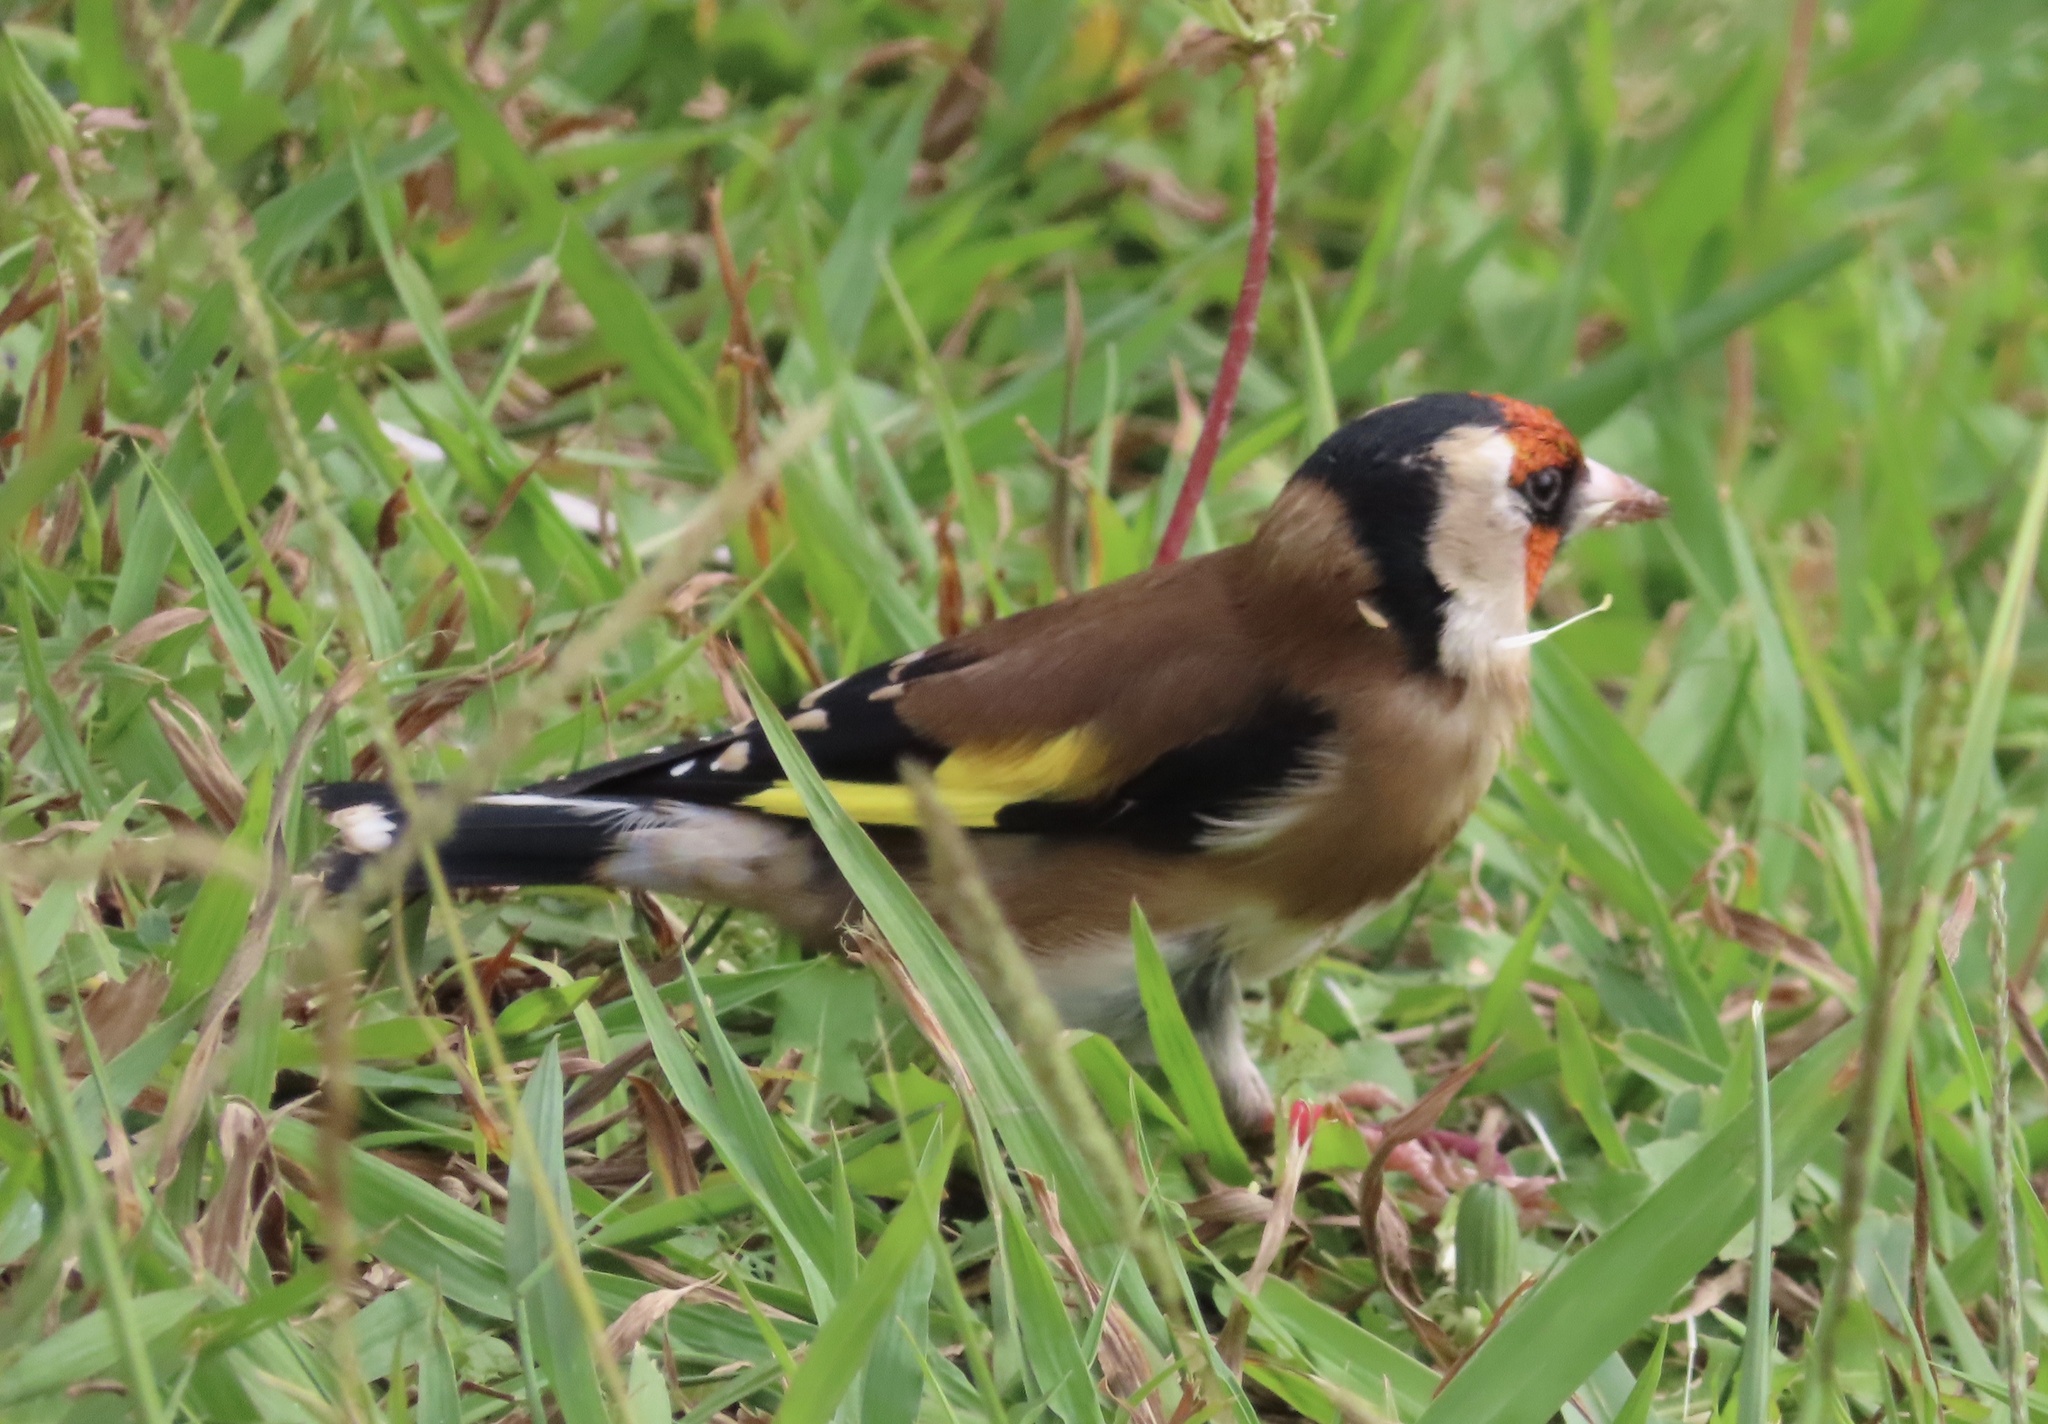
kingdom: Animalia
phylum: Chordata
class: Aves
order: Passeriformes
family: Fringillidae
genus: Carduelis
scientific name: Carduelis carduelis
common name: European goldfinch
